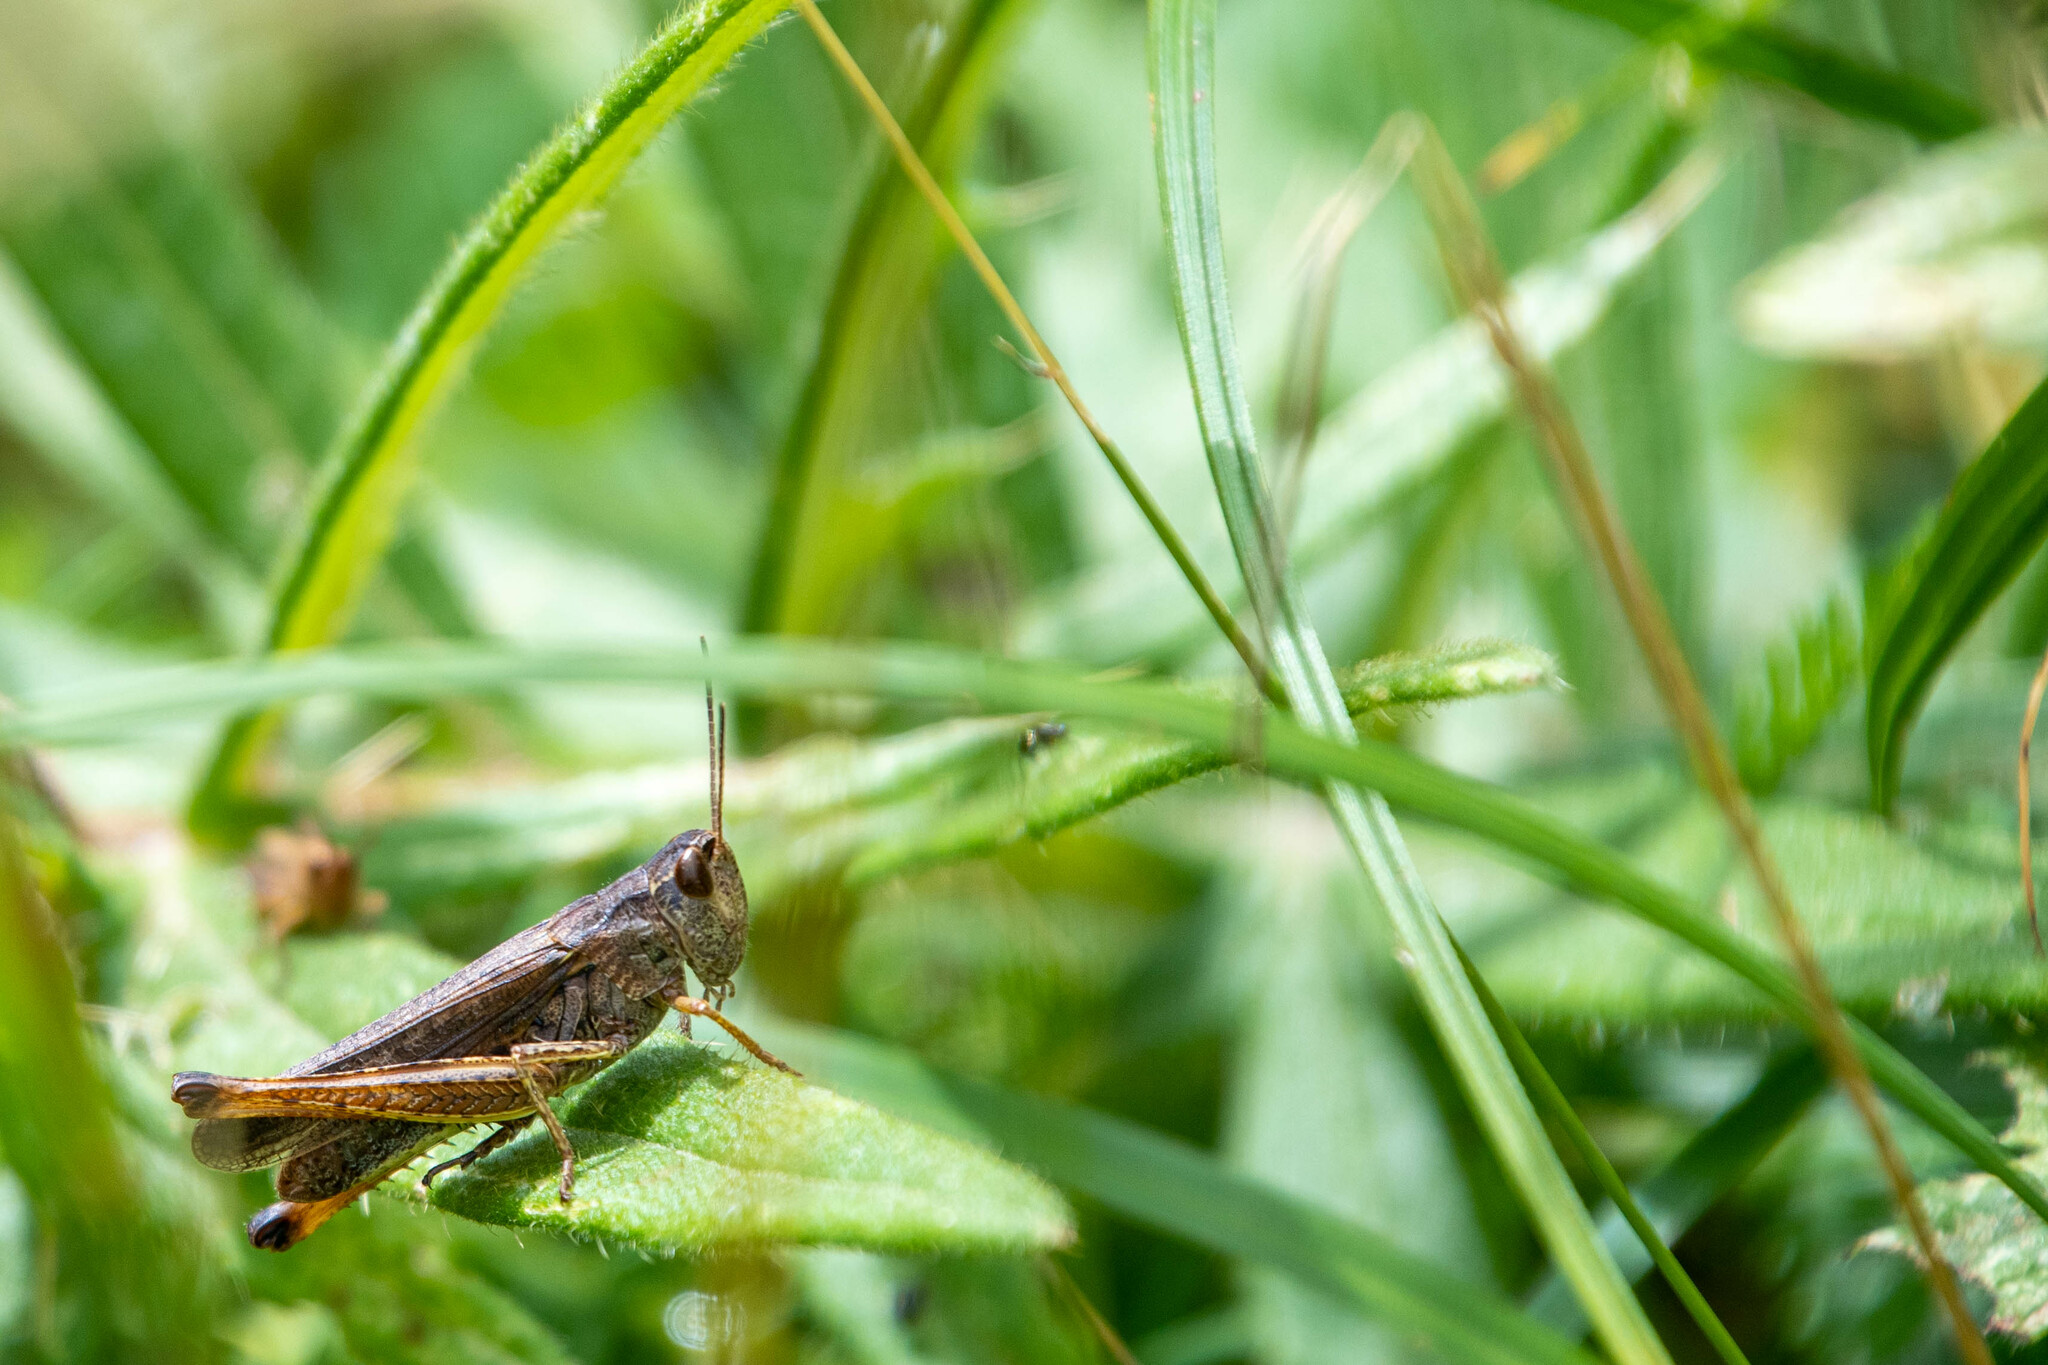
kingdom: Animalia
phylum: Arthropoda
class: Insecta
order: Orthoptera
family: Acrididae
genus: Stauroderus
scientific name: Stauroderus scalaris
